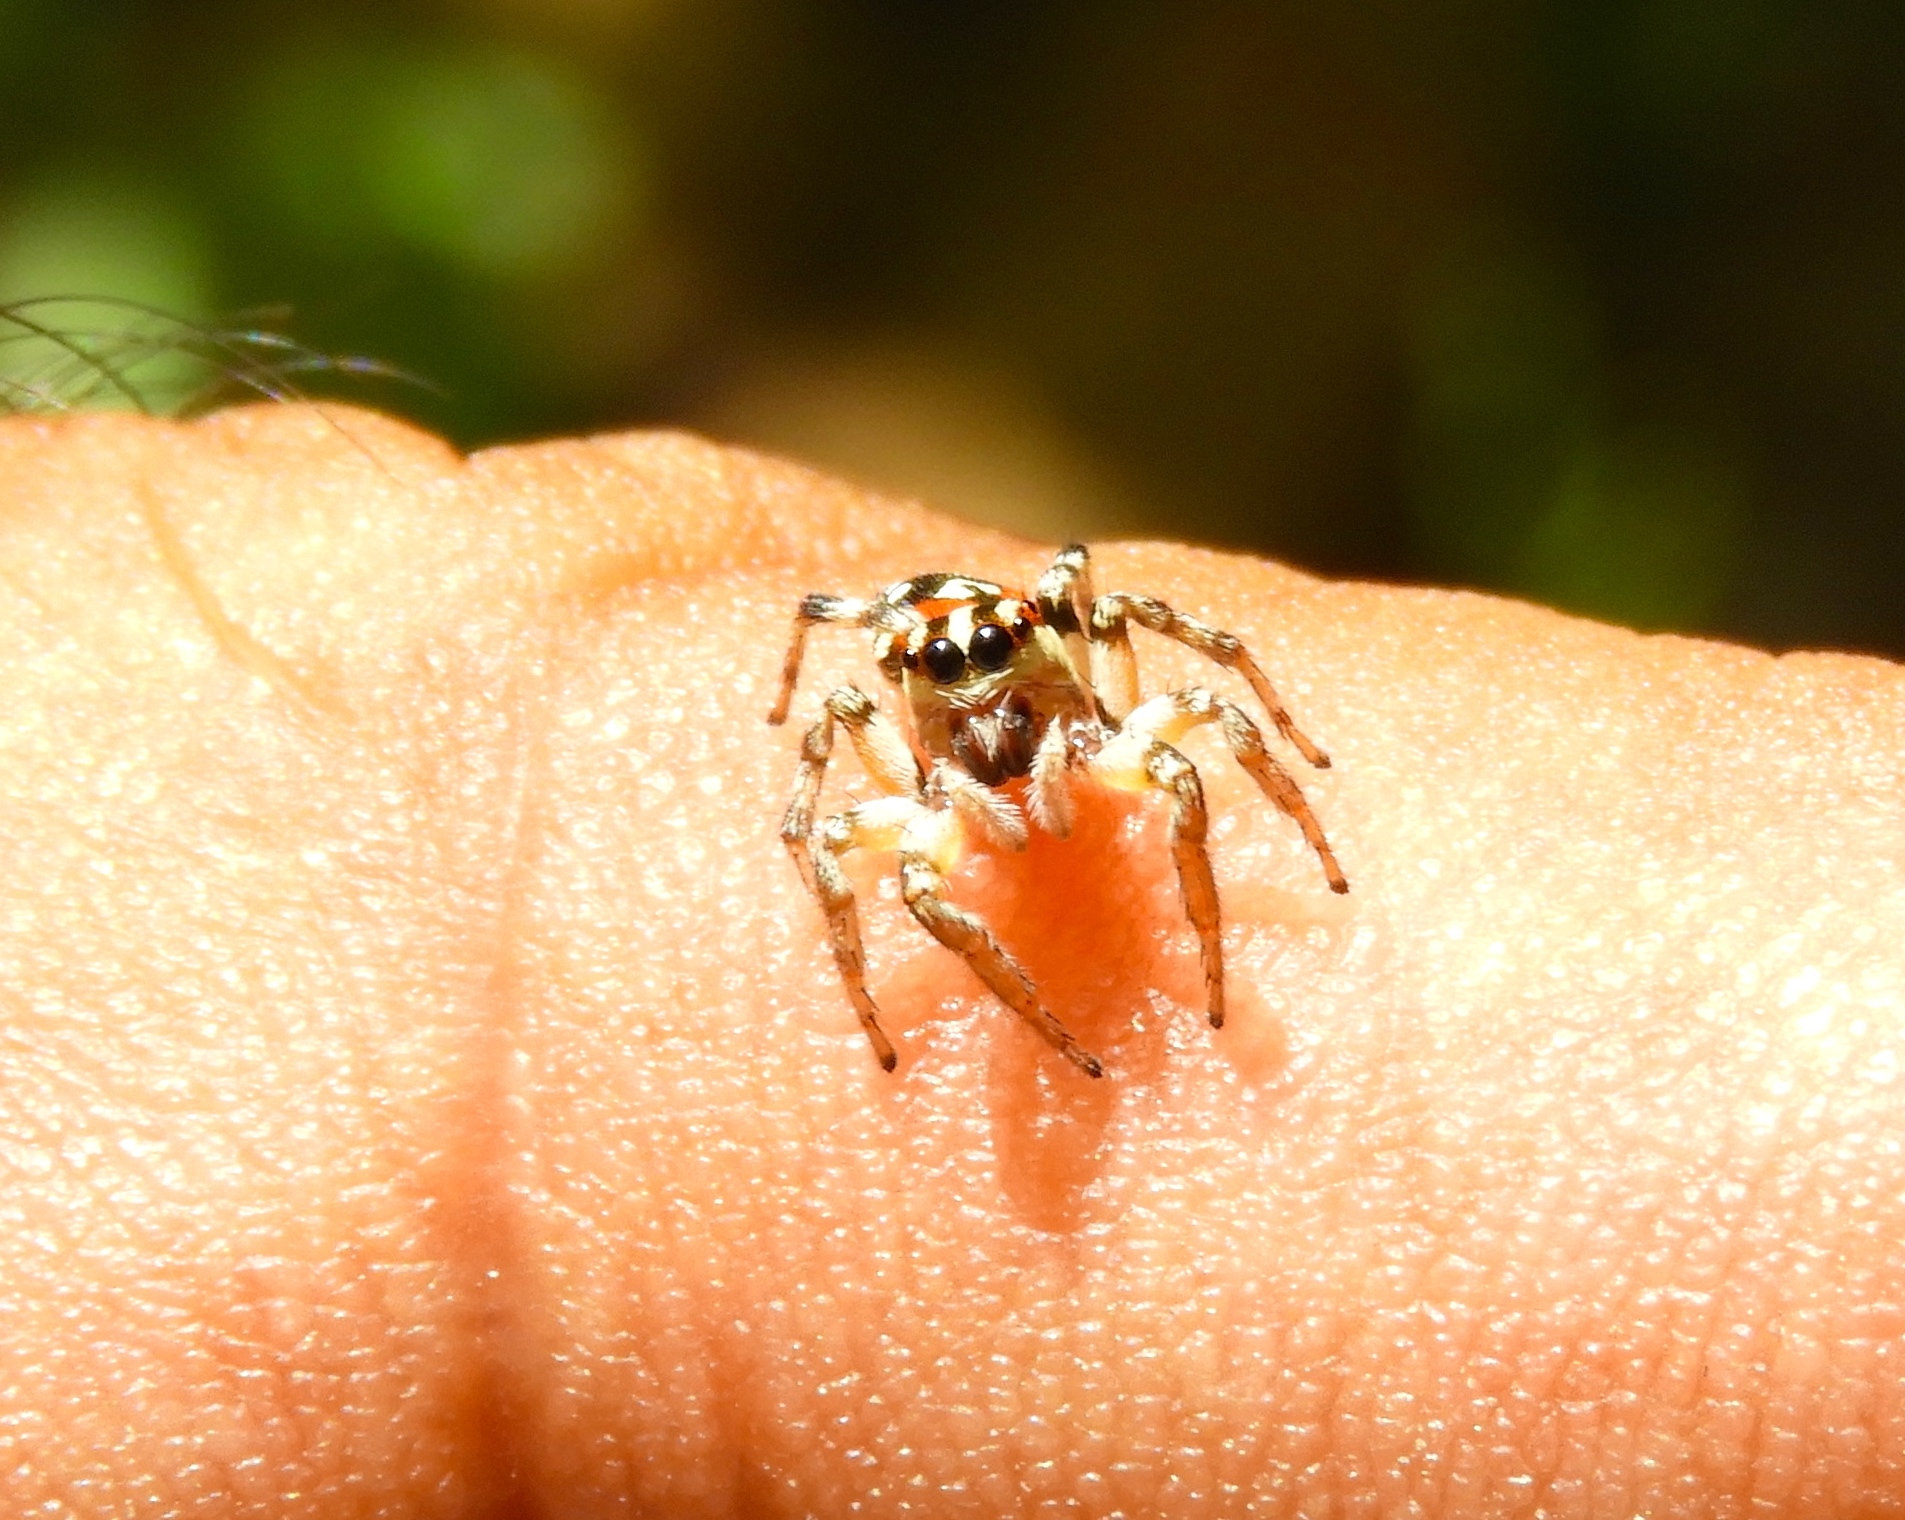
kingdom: Animalia
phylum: Arthropoda
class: Arachnida
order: Araneae
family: Salticidae
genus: Nycerella
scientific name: Nycerella delecta
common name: Jumping spiders
